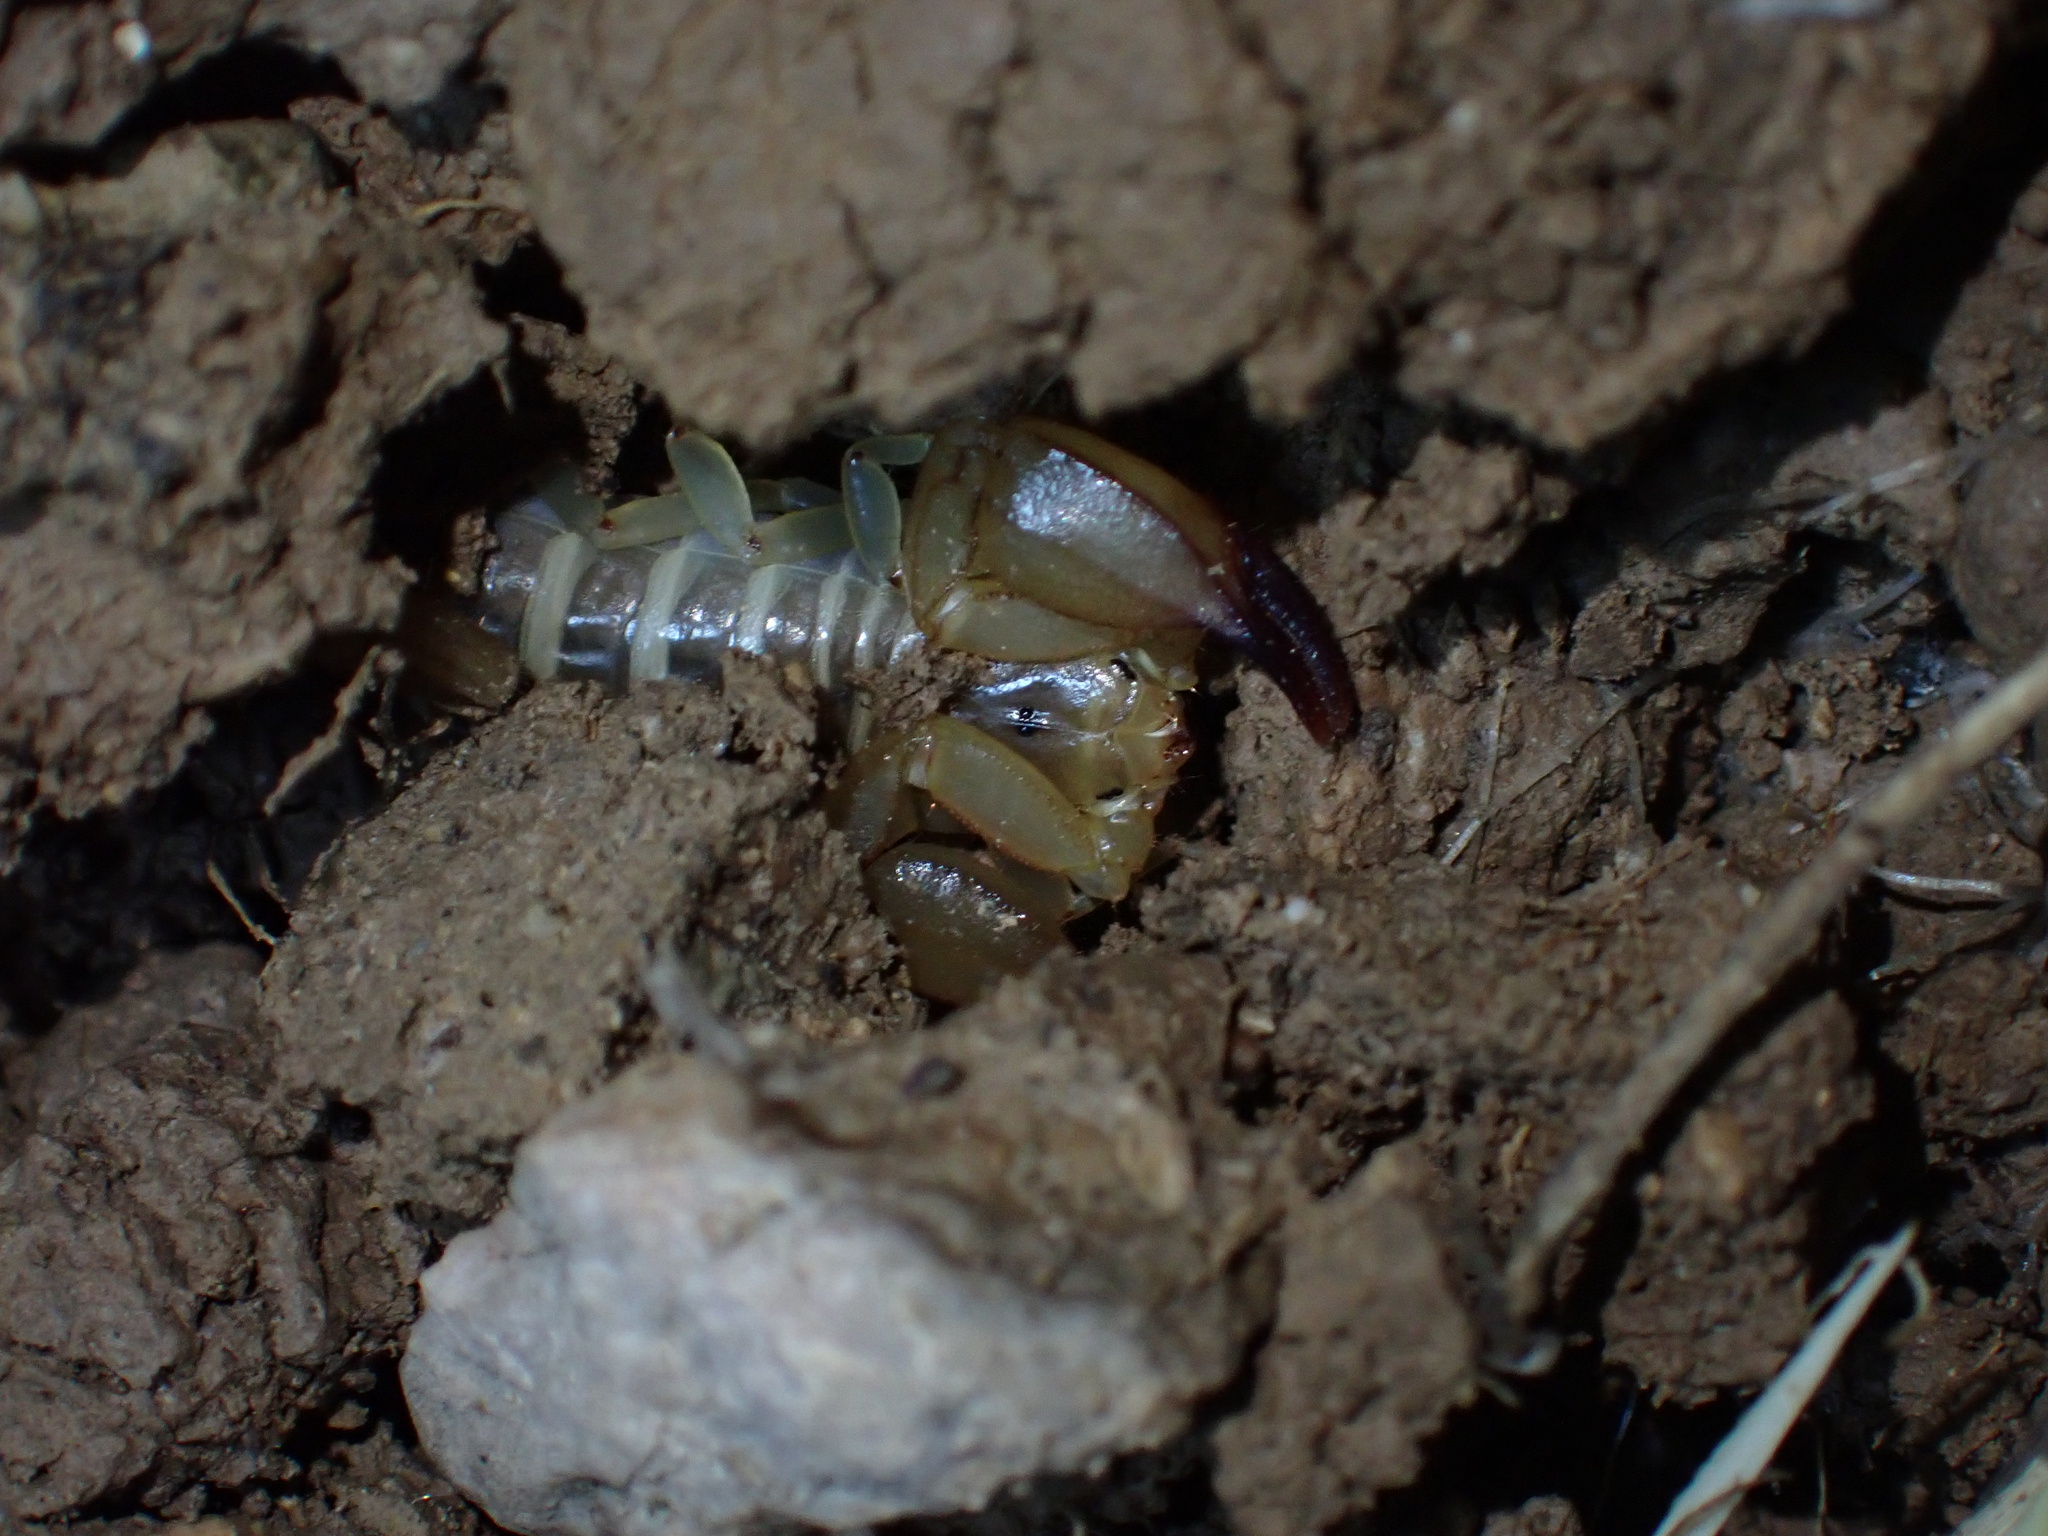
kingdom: Animalia
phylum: Arthropoda
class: Arachnida
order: Scorpiones
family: Hemiscorpiidae
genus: Hemiscorpius
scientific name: Hemiscorpius lepturus
